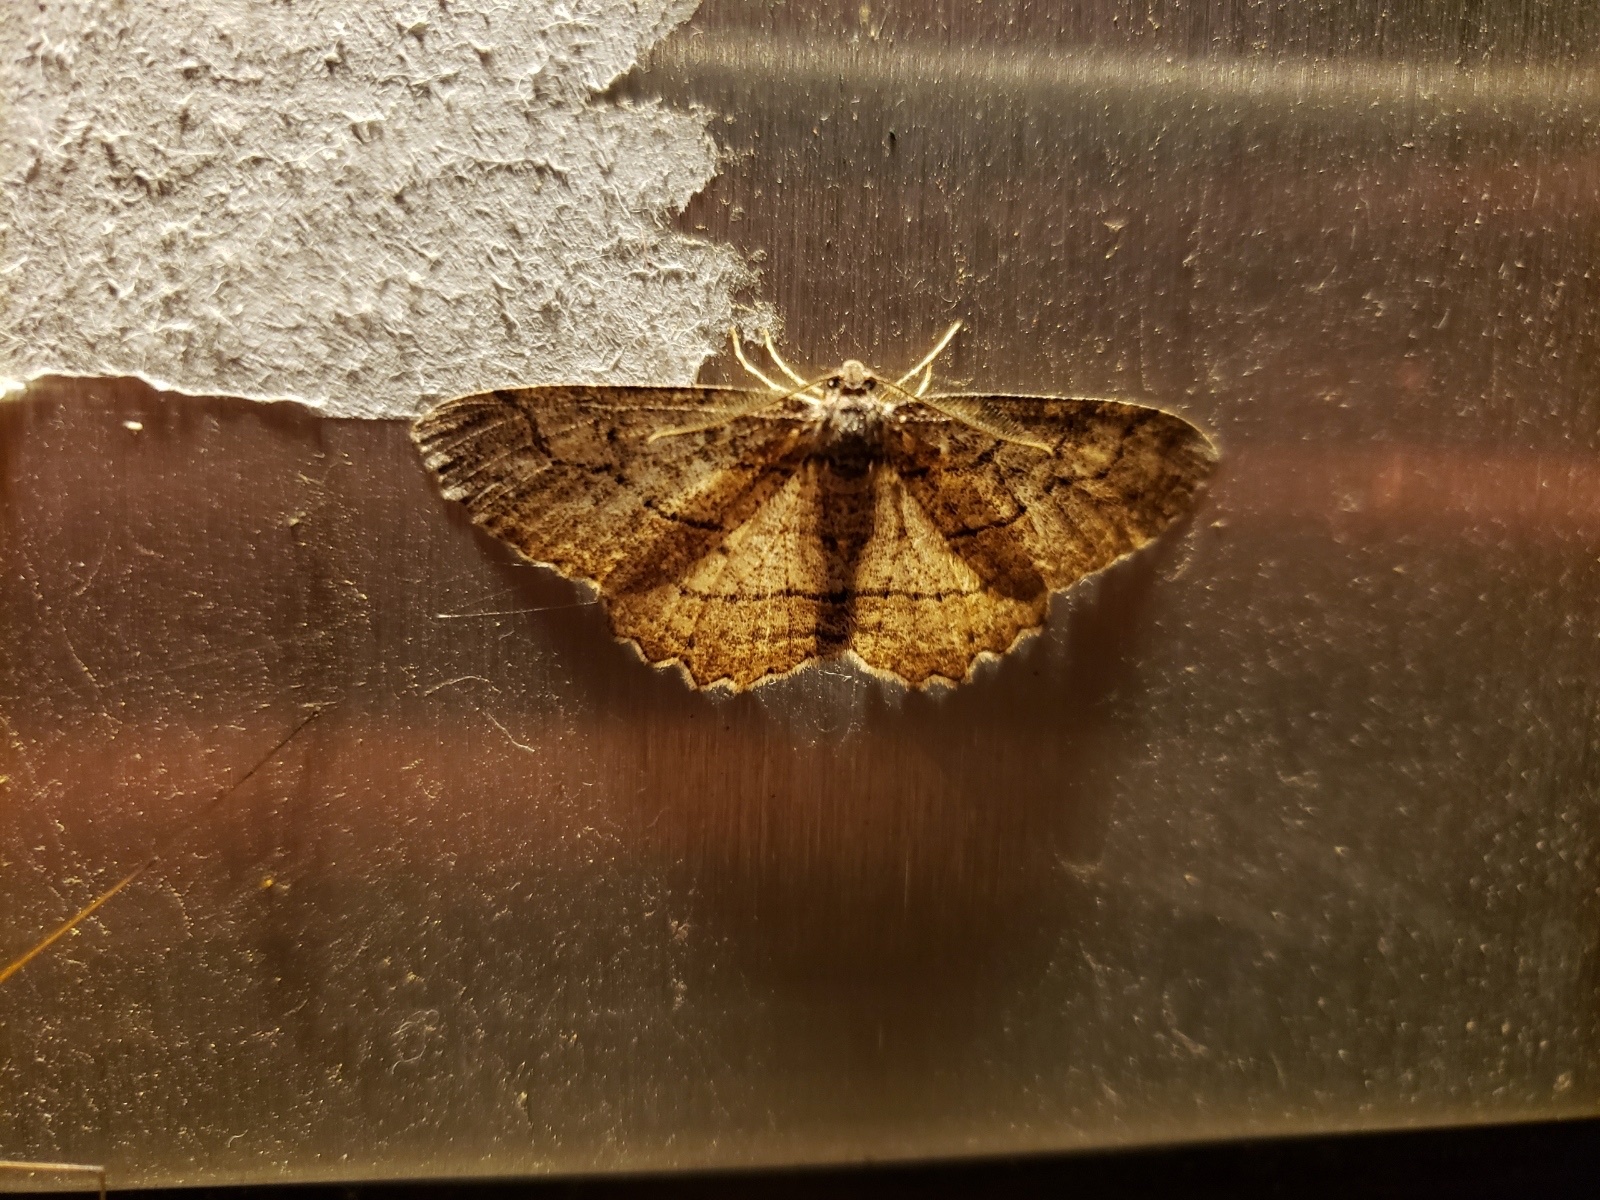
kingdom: Animalia
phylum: Arthropoda
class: Insecta
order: Lepidoptera
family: Geometridae
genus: Neoalcis
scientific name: Neoalcis californiaria
